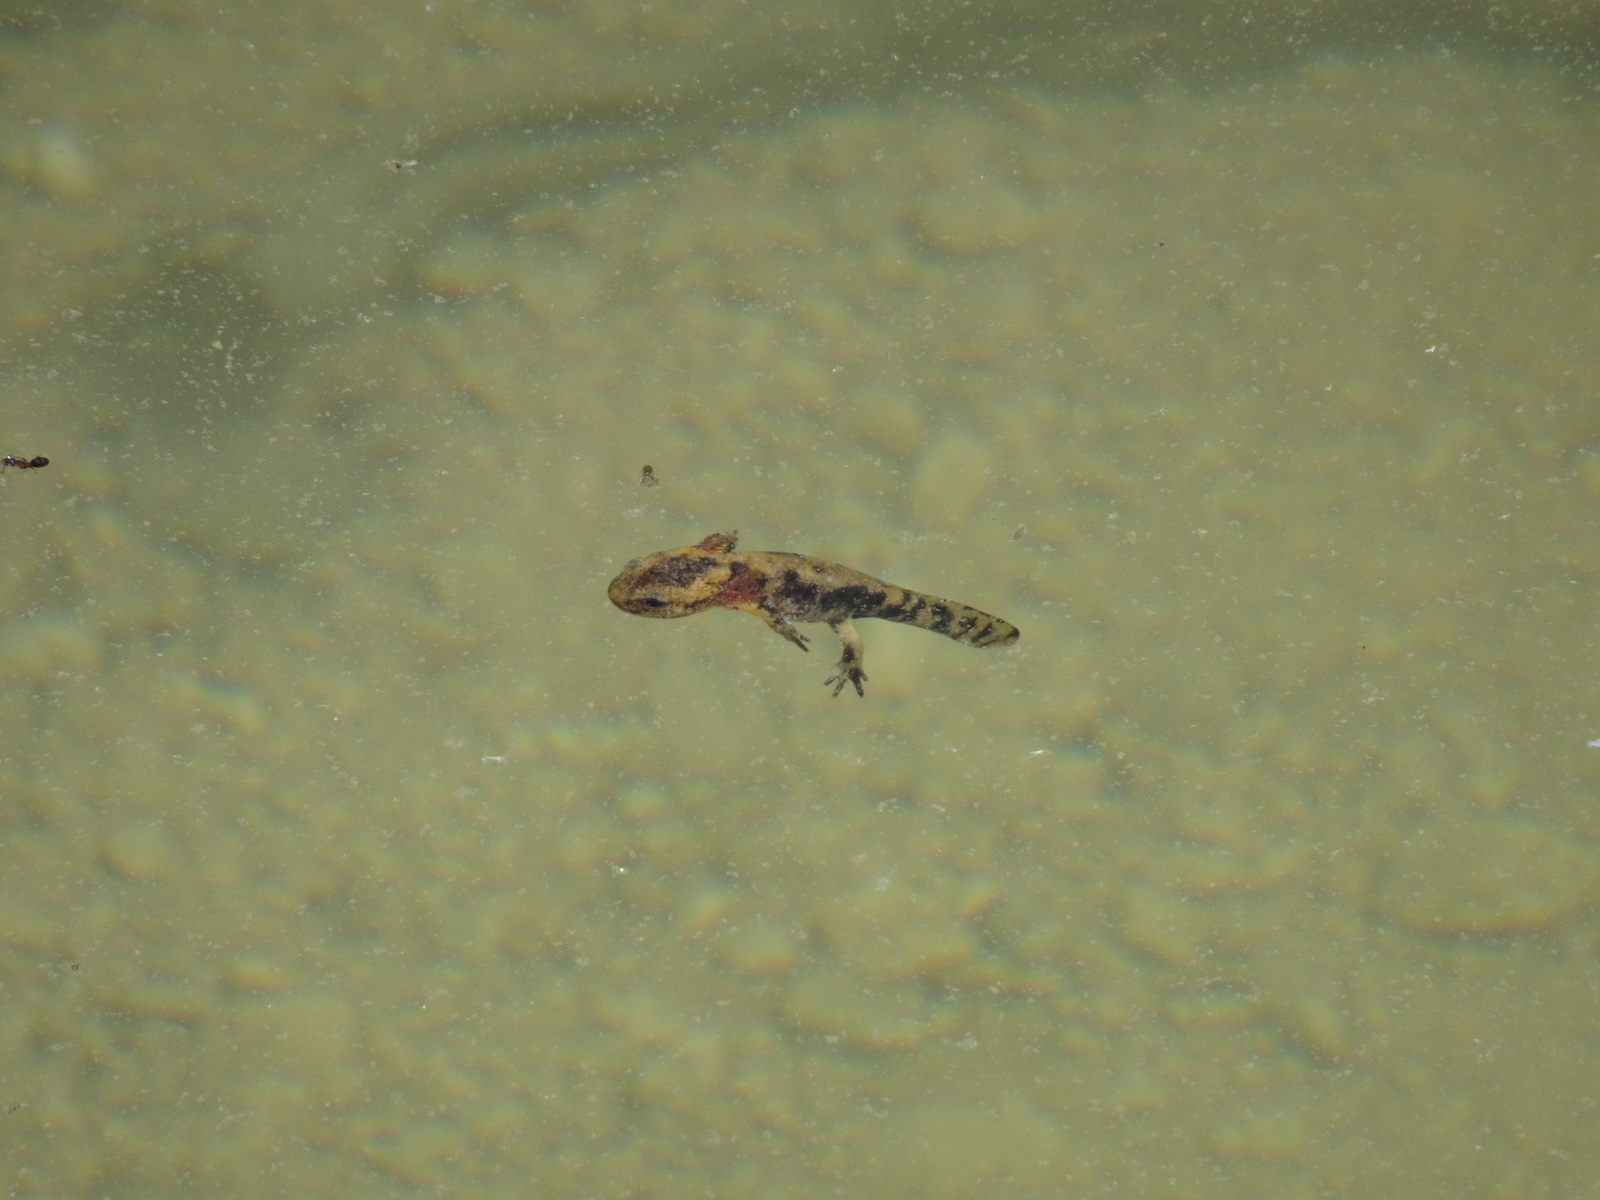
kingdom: Animalia
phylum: Chordata
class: Amphibia
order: Caudata
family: Salamandridae
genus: Salamandra
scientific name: Salamandra salamandra
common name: Fire salamander
